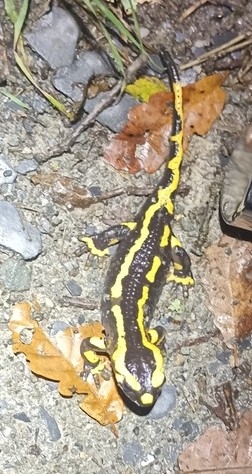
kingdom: Animalia
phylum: Chordata
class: Amphibia
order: Caudata
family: Salamandridae
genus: Salamandra
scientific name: Salamandra salamandra
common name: Fire salamander
